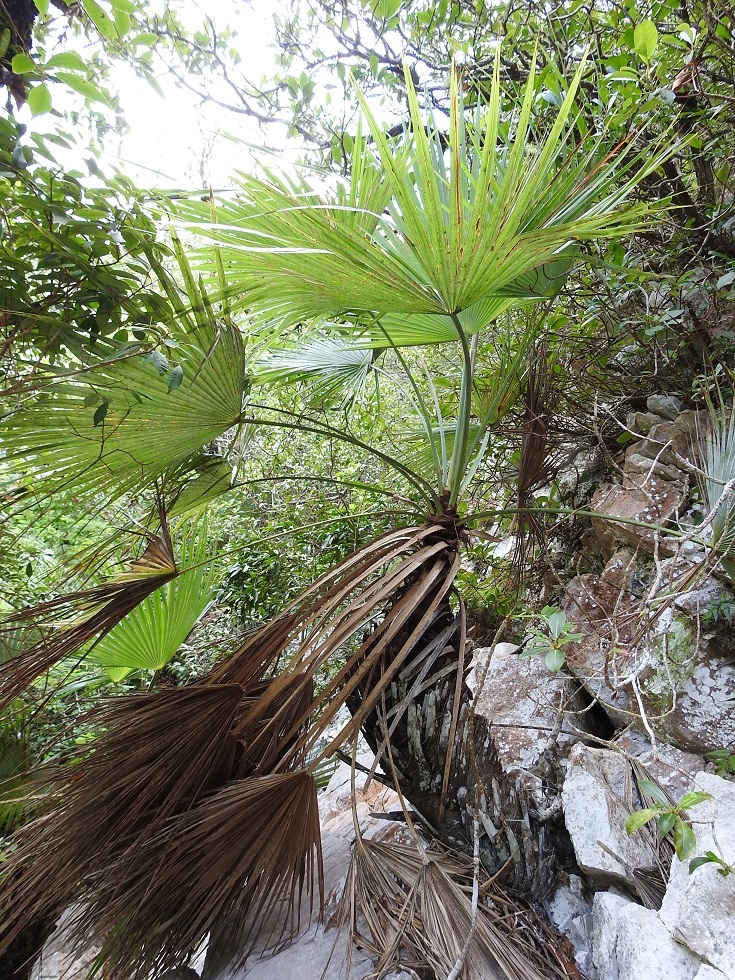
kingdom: Plantae
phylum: Tracheophyta
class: Liliopsida
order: Arecales
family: Arecaceae
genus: Brahea
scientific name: Brahea nitida
